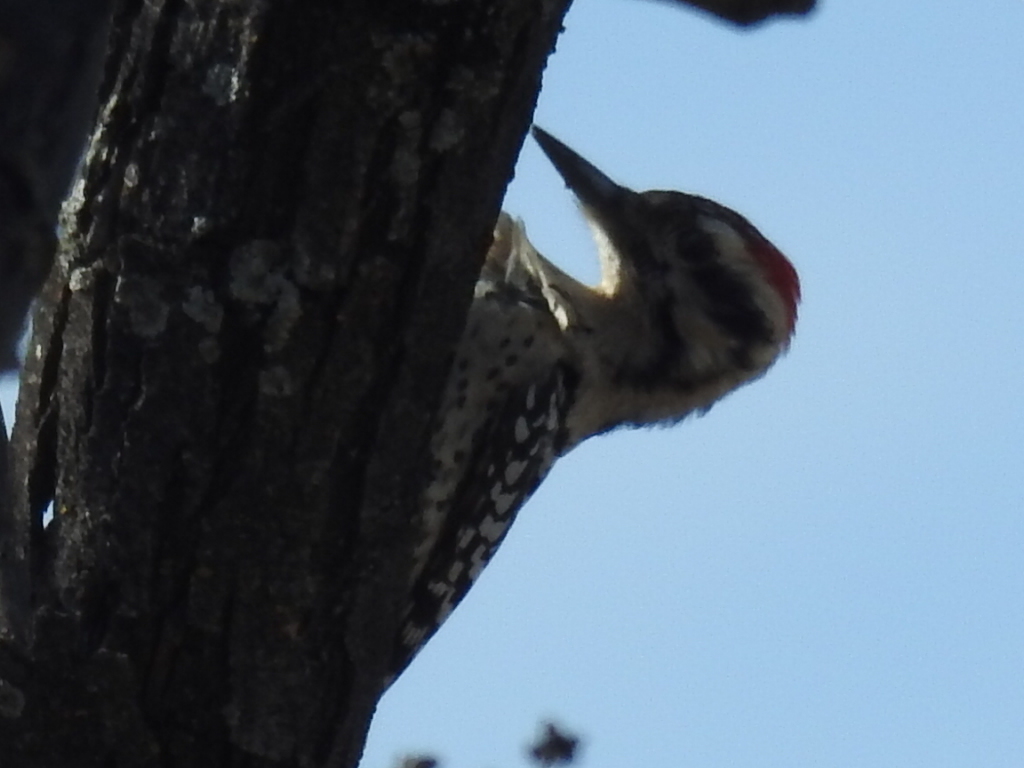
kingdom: Animalia
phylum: Chordata
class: Aves
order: Piciformes
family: Picidae
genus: Dryobates
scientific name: Dryobates scalaris
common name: Ladder-backed woodpecker
